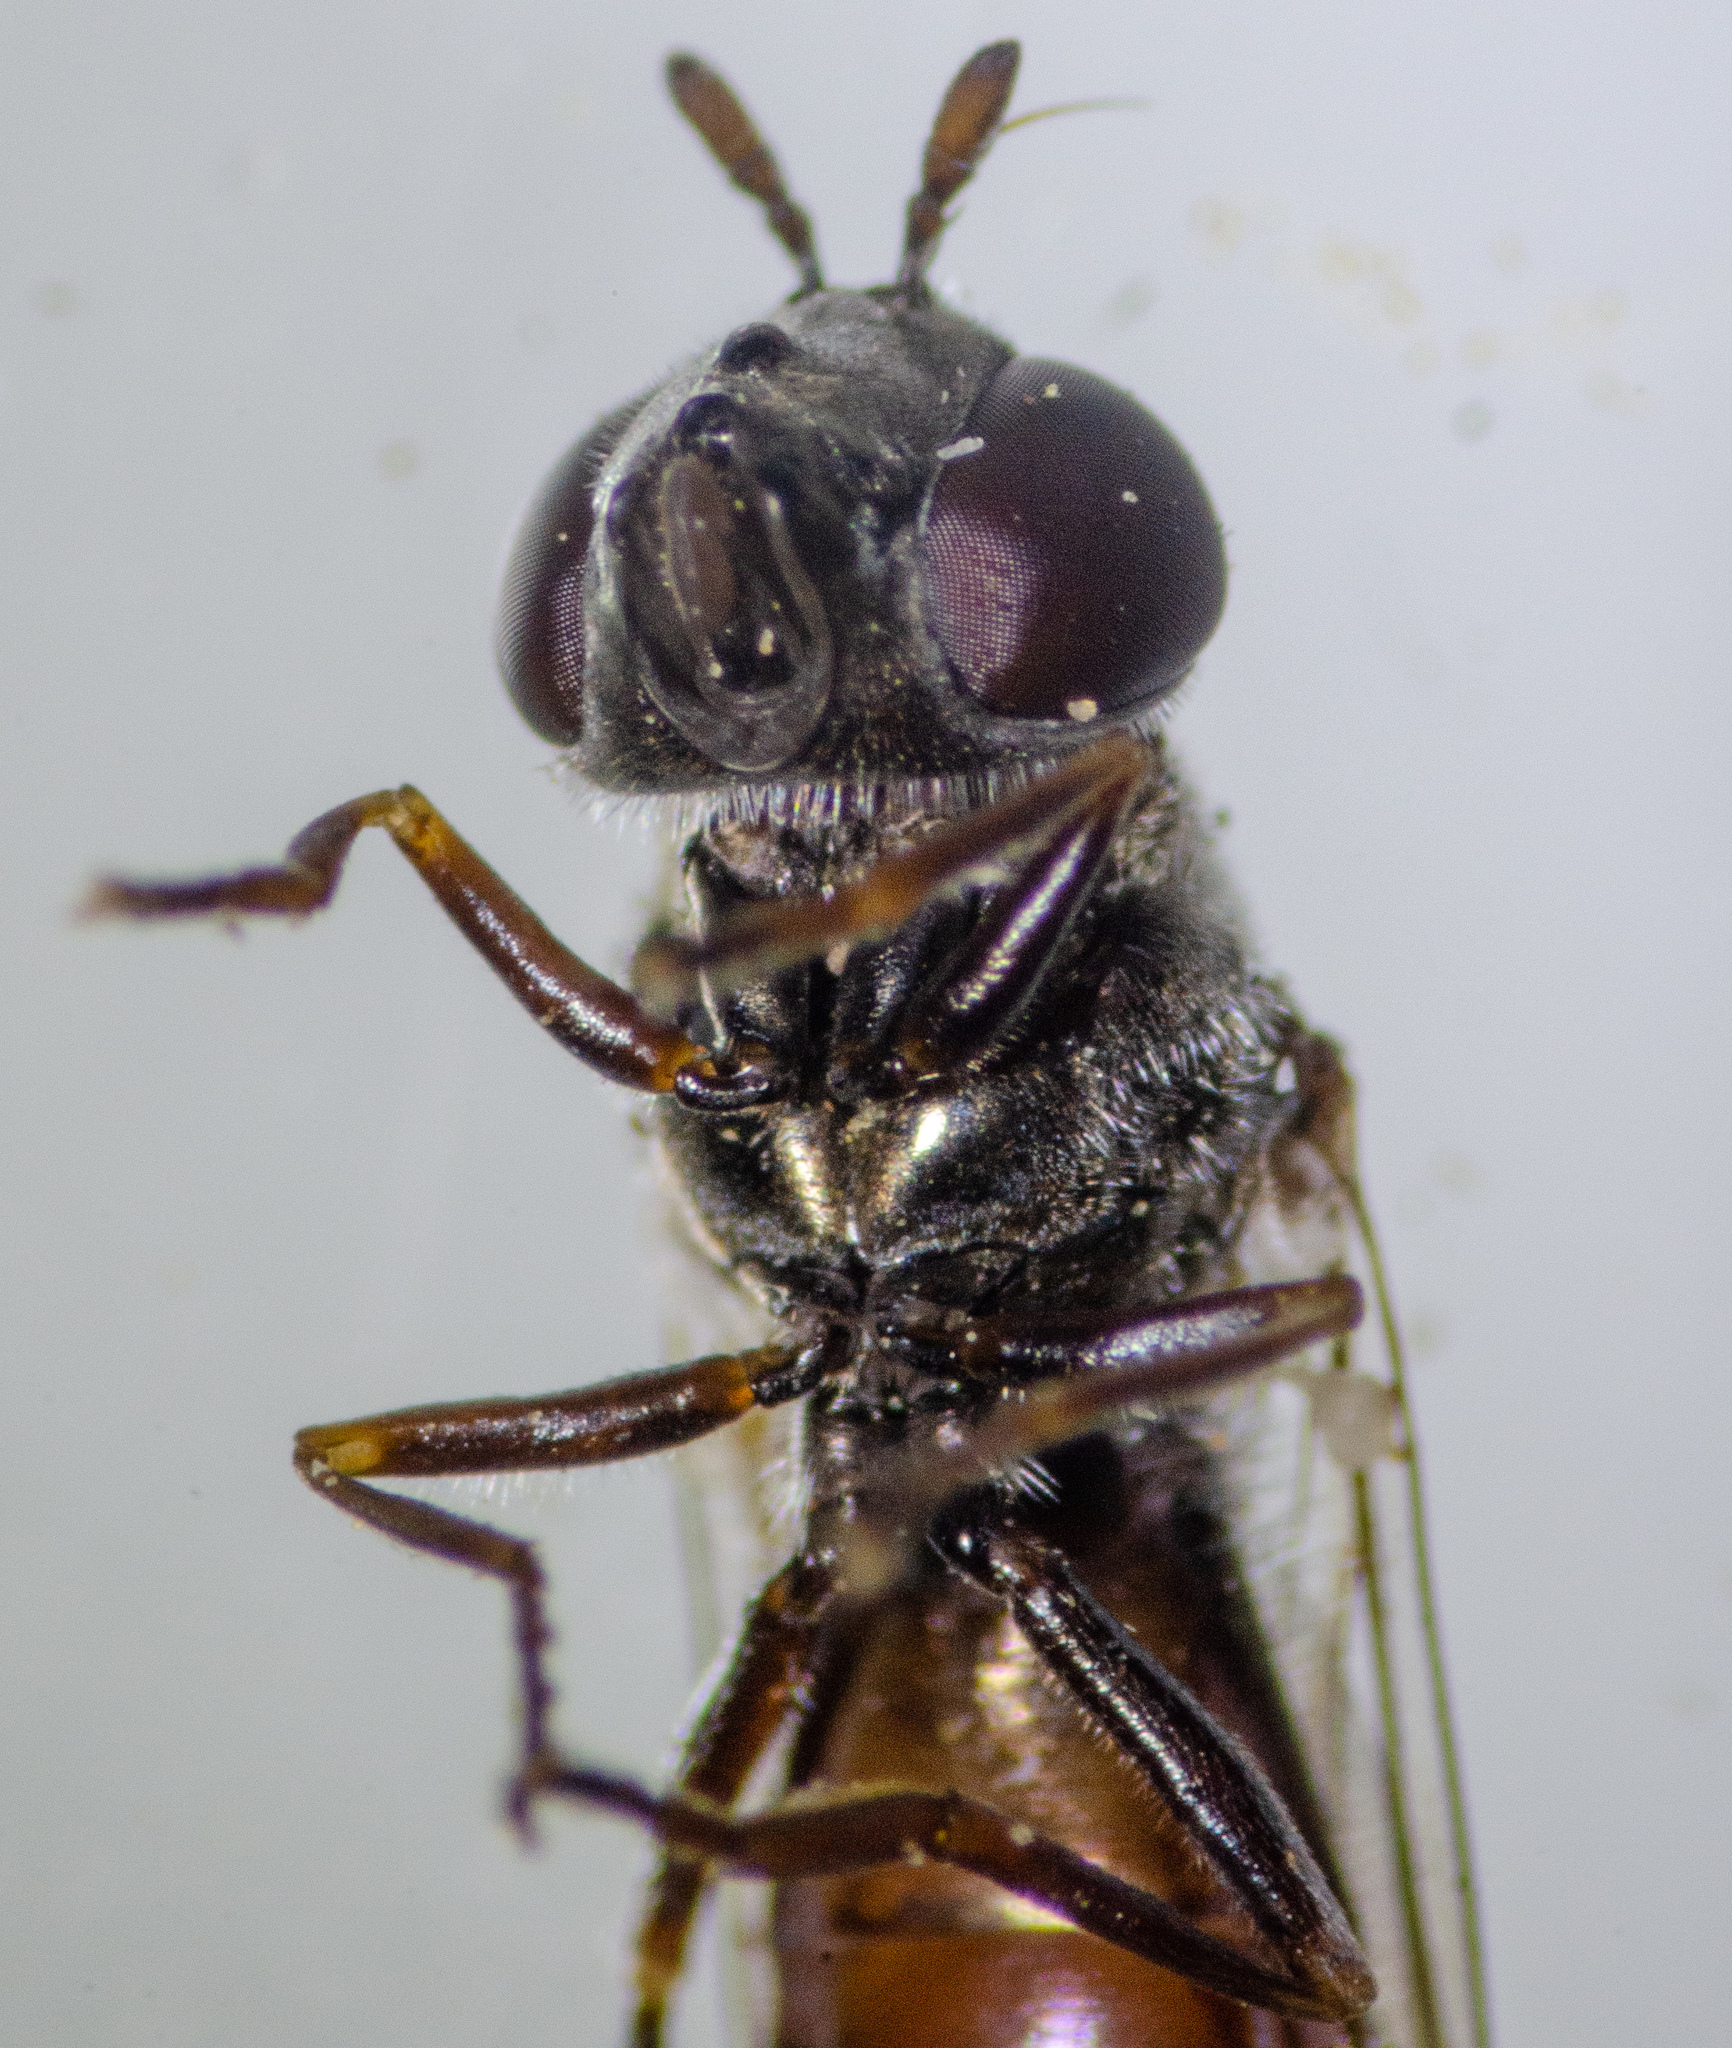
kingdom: Animalia
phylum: Arthropoda
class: Insecta
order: Diptera
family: Syrphidae
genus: Platycheirus
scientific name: Platycheirus russatus
